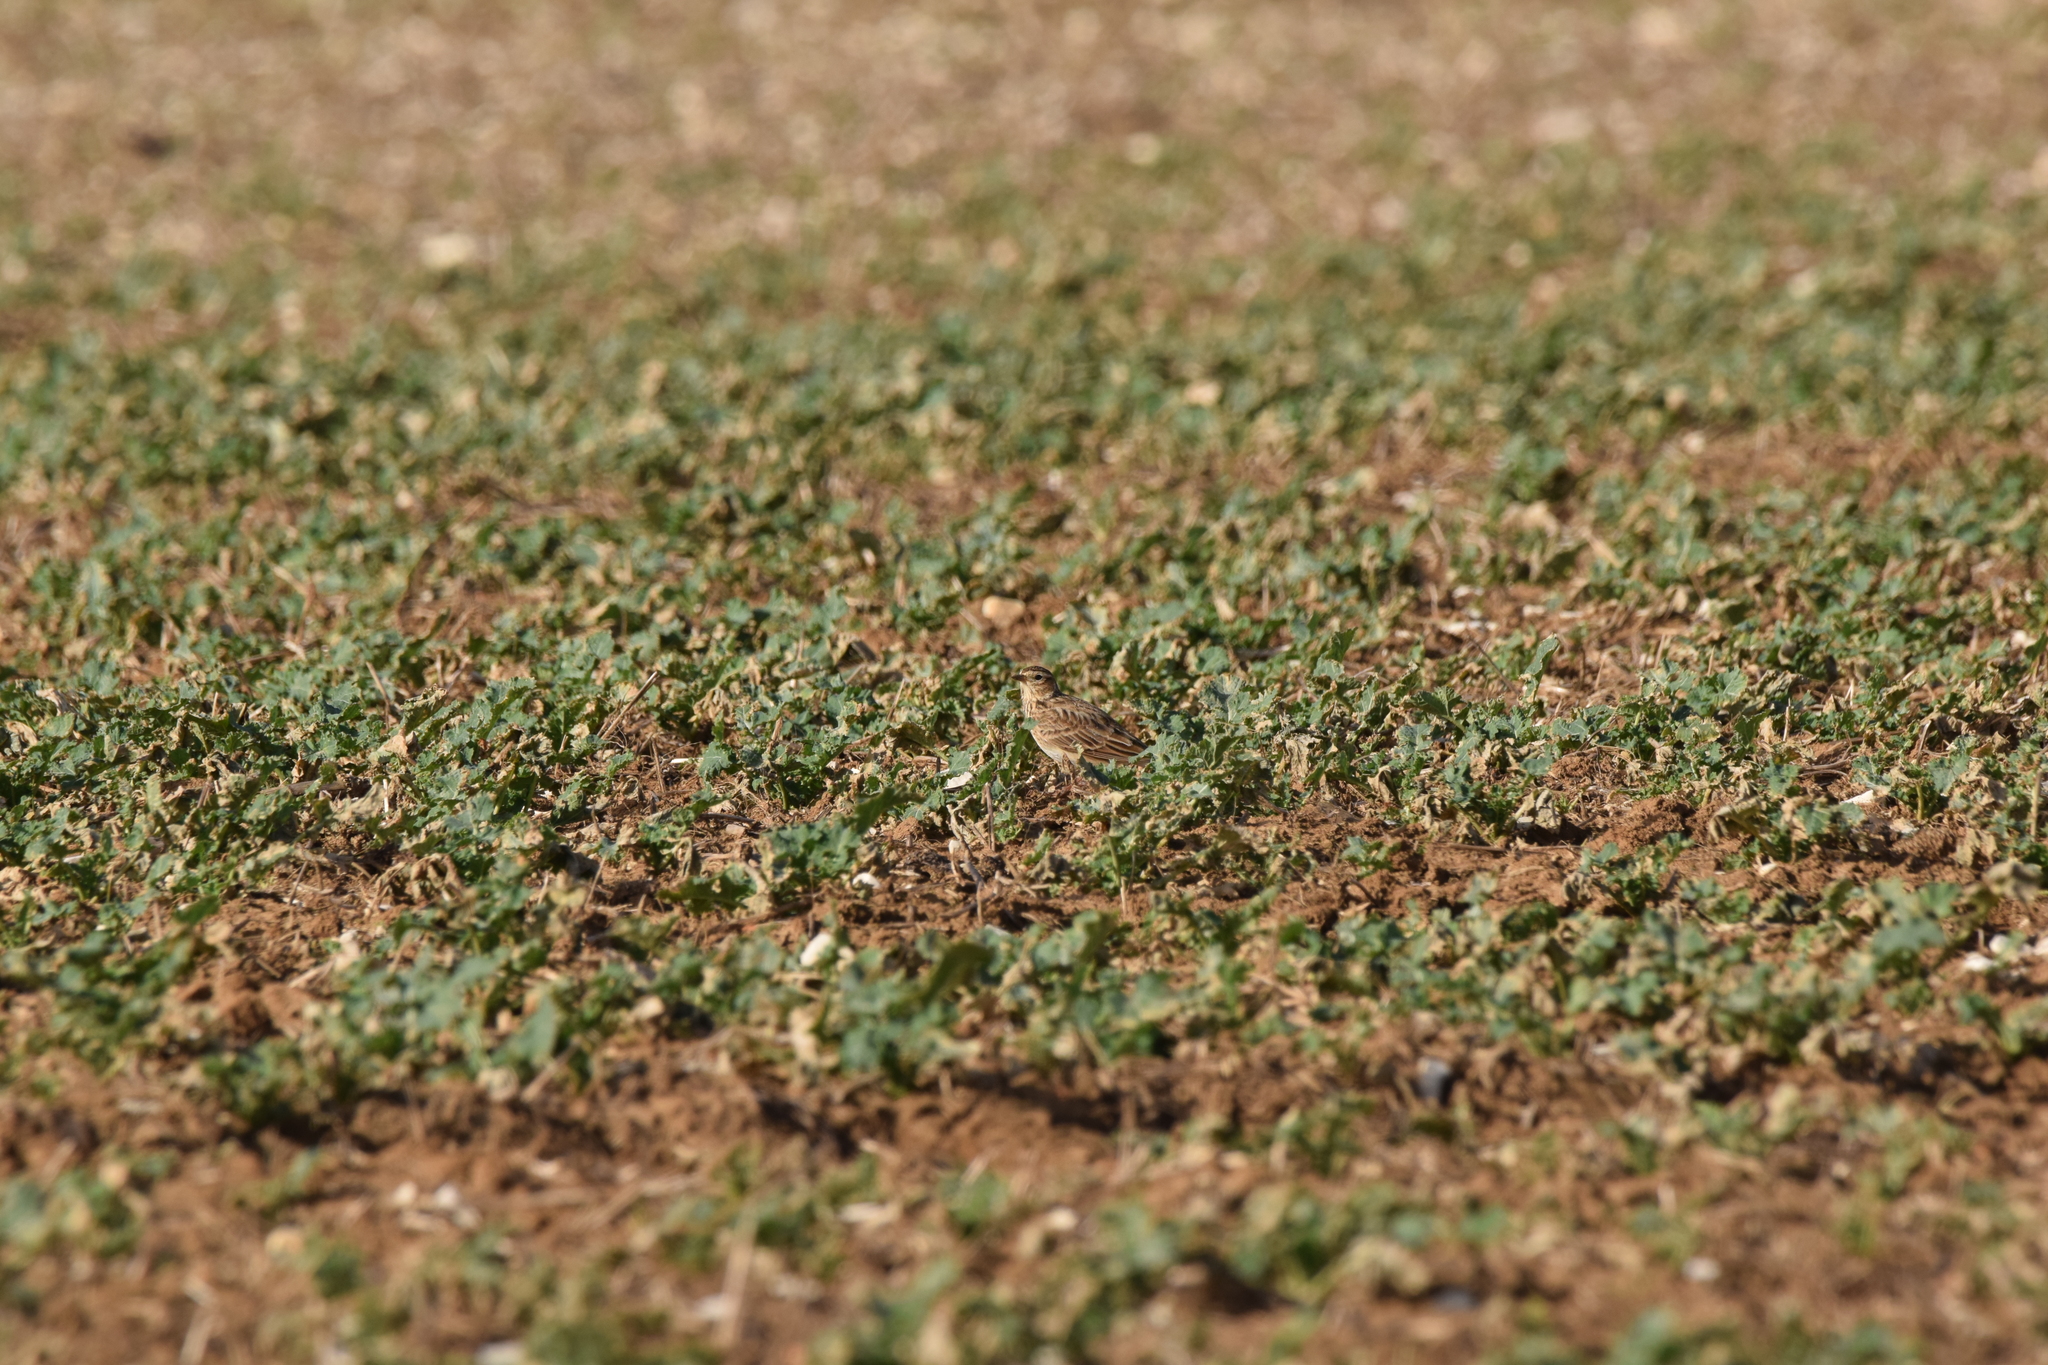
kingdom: Animalia
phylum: Chordata
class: Aves
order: Passeriformes
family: Alaudidae
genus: Alauda
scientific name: Alauda arvensis
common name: Eurasian skylark
